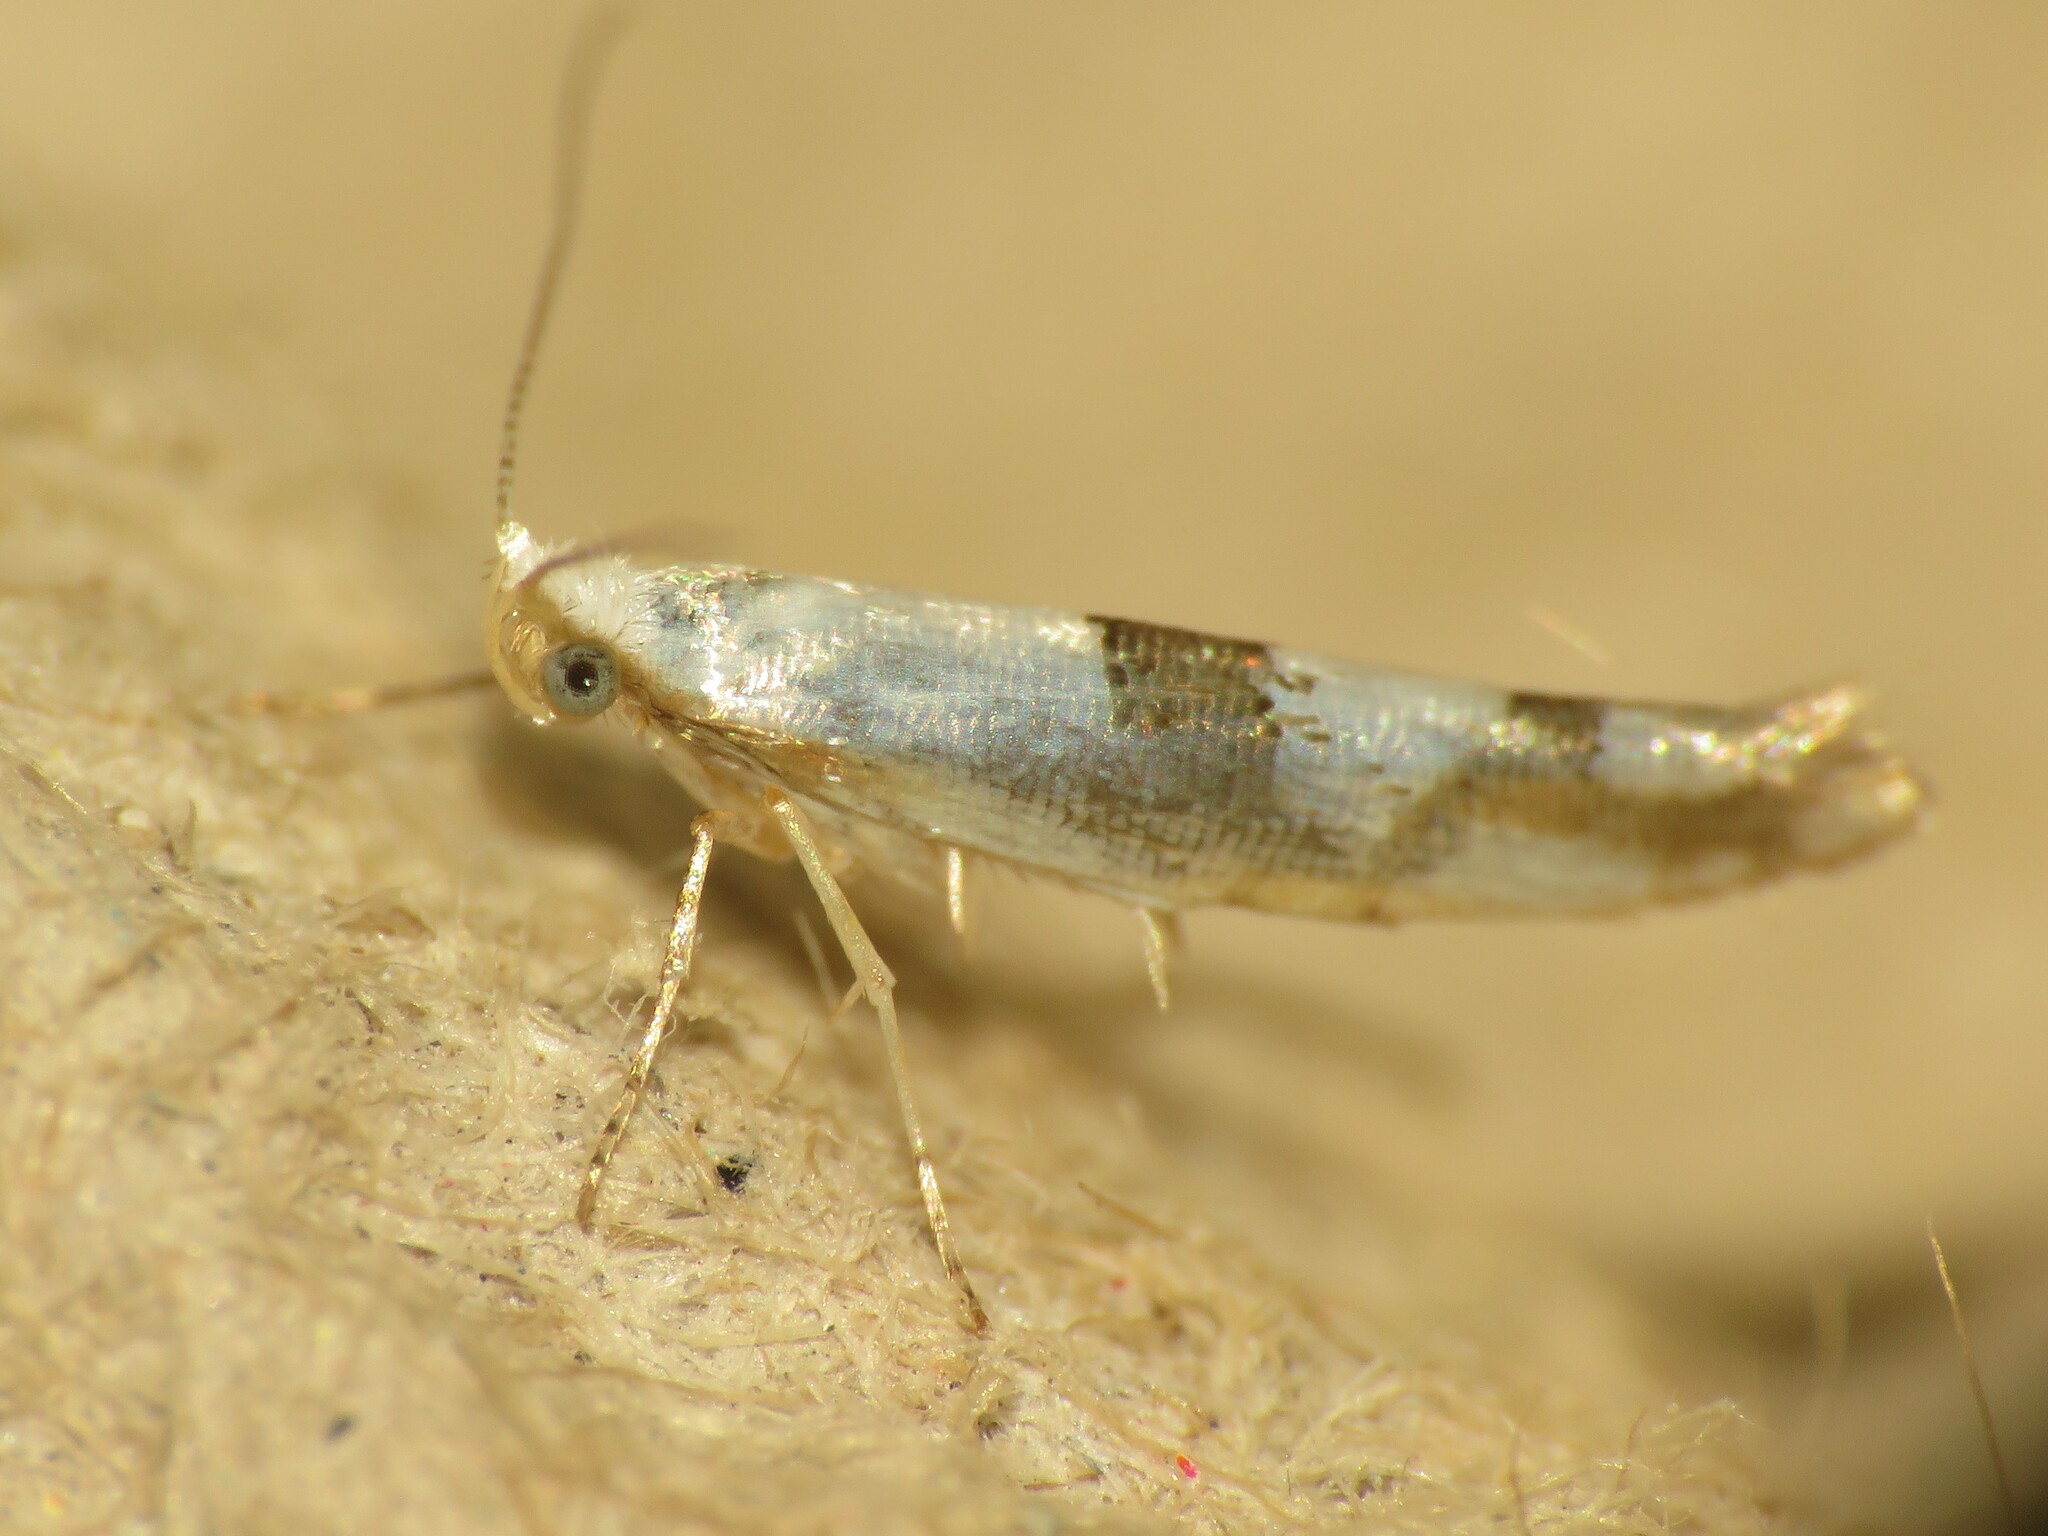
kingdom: Animalia
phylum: Arthropoda
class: Insecta
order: Lepidoptera
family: Argyresthiidae
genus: Argyresthia
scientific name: Argyresthia oreasella
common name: Cherry shoot borer moth
